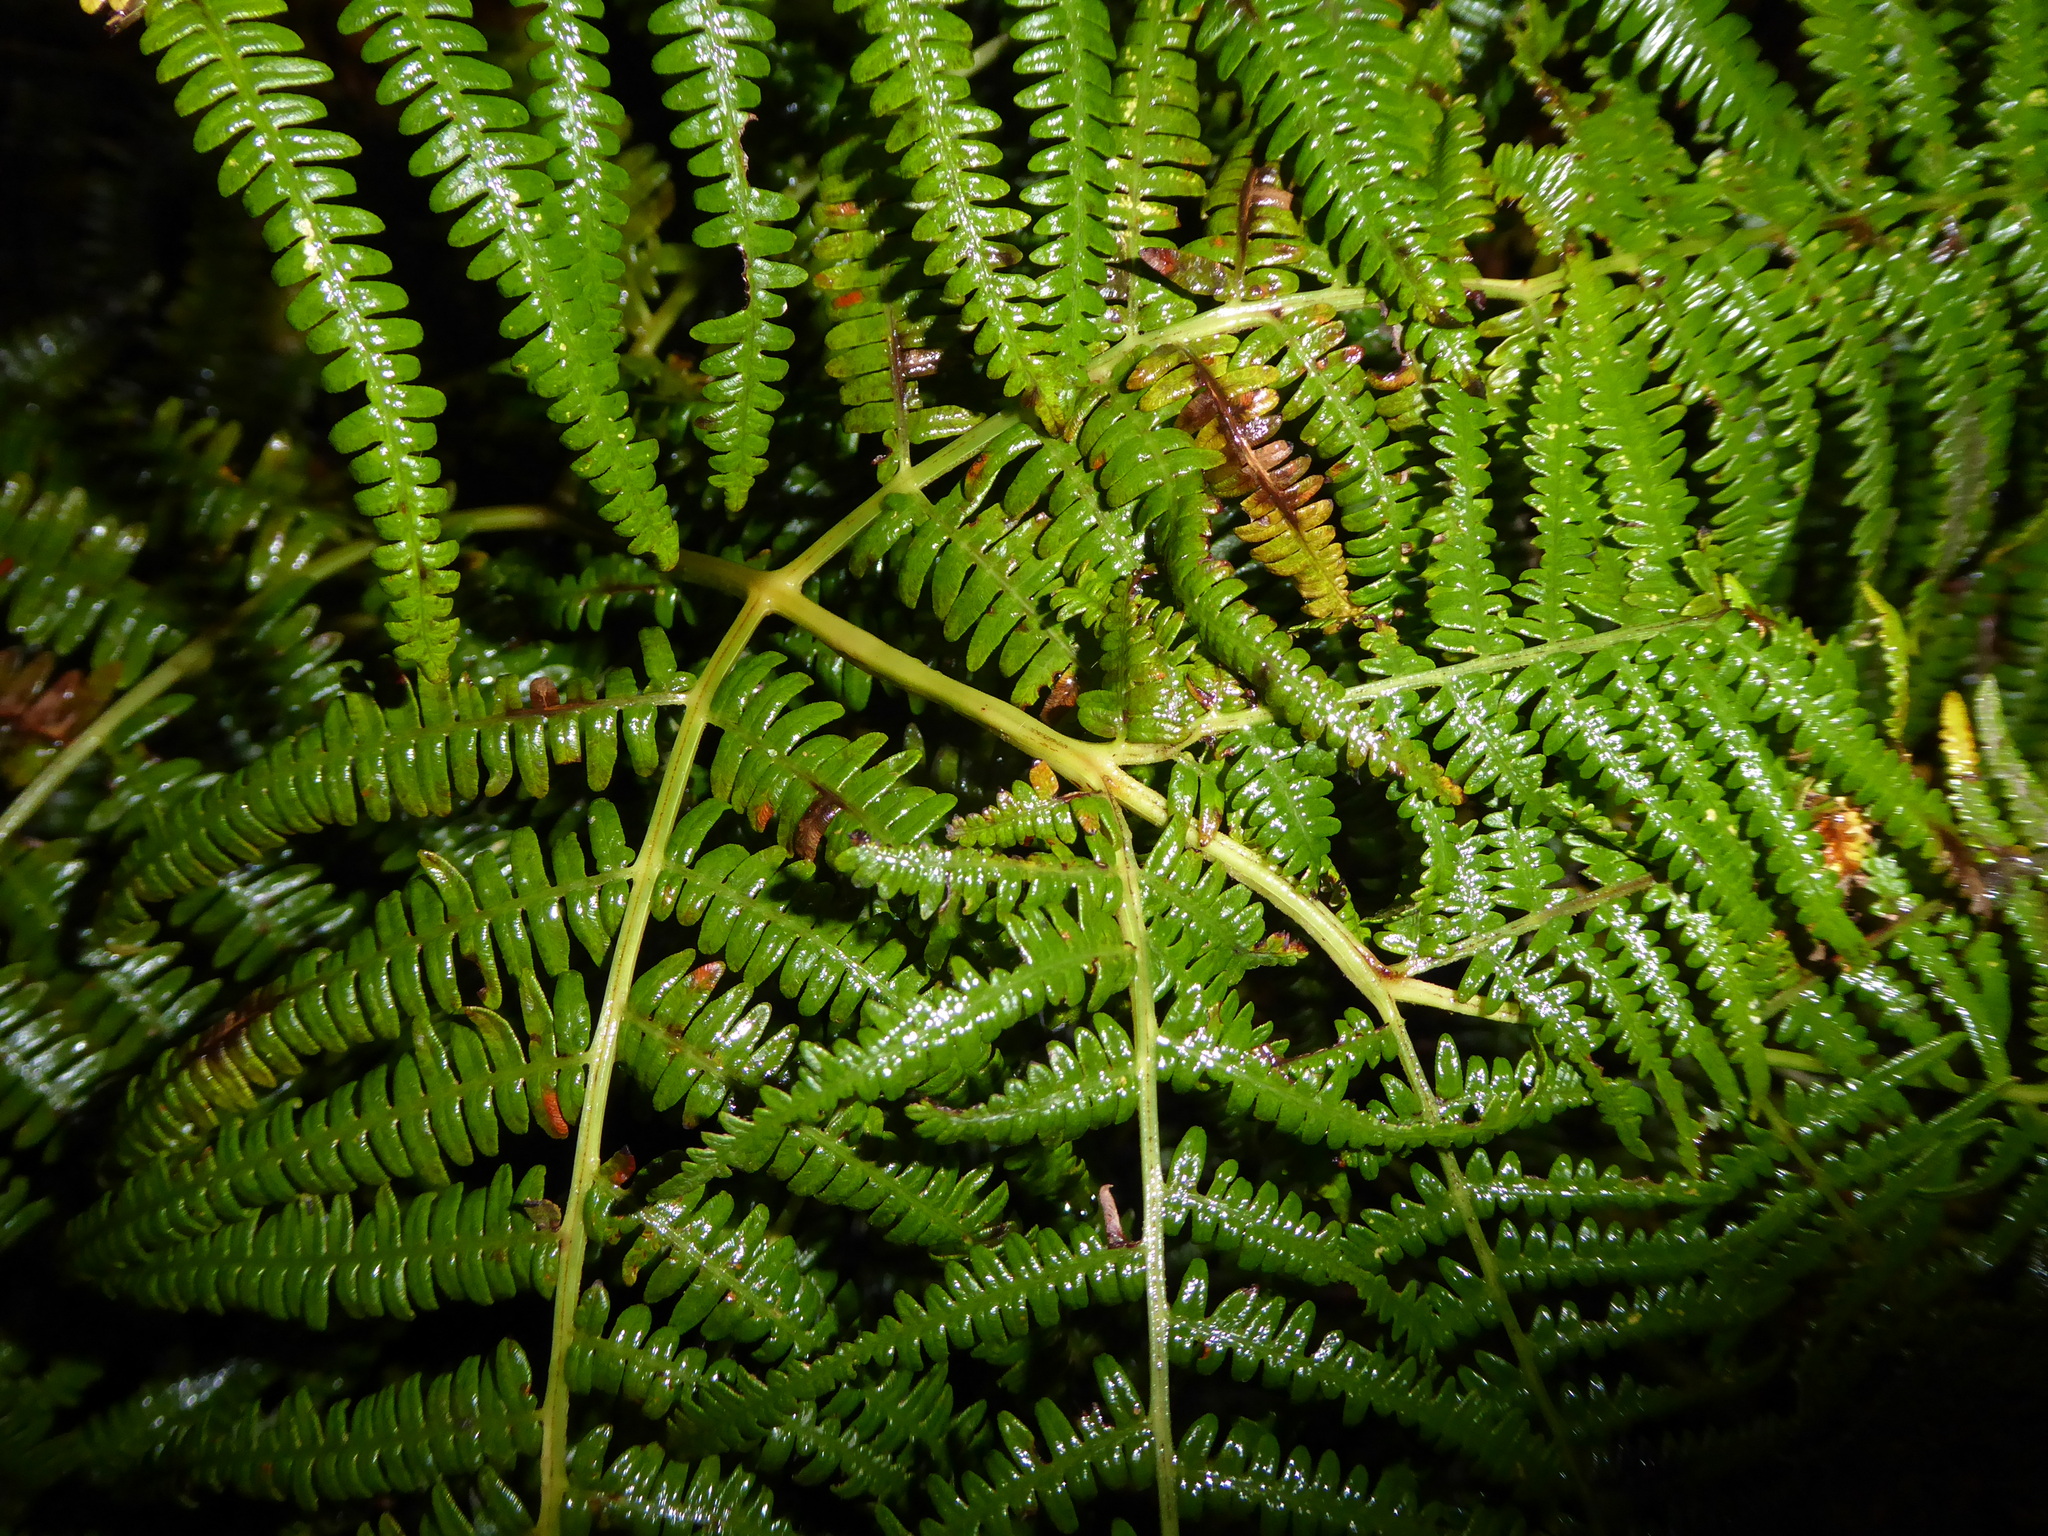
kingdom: Plantae
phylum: Tracheophyta
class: Polypodiopsida
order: Polypodiales
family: Dennstaedtiaceae
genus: Pteridium
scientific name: Pteridium aquilinum
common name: Bracken
